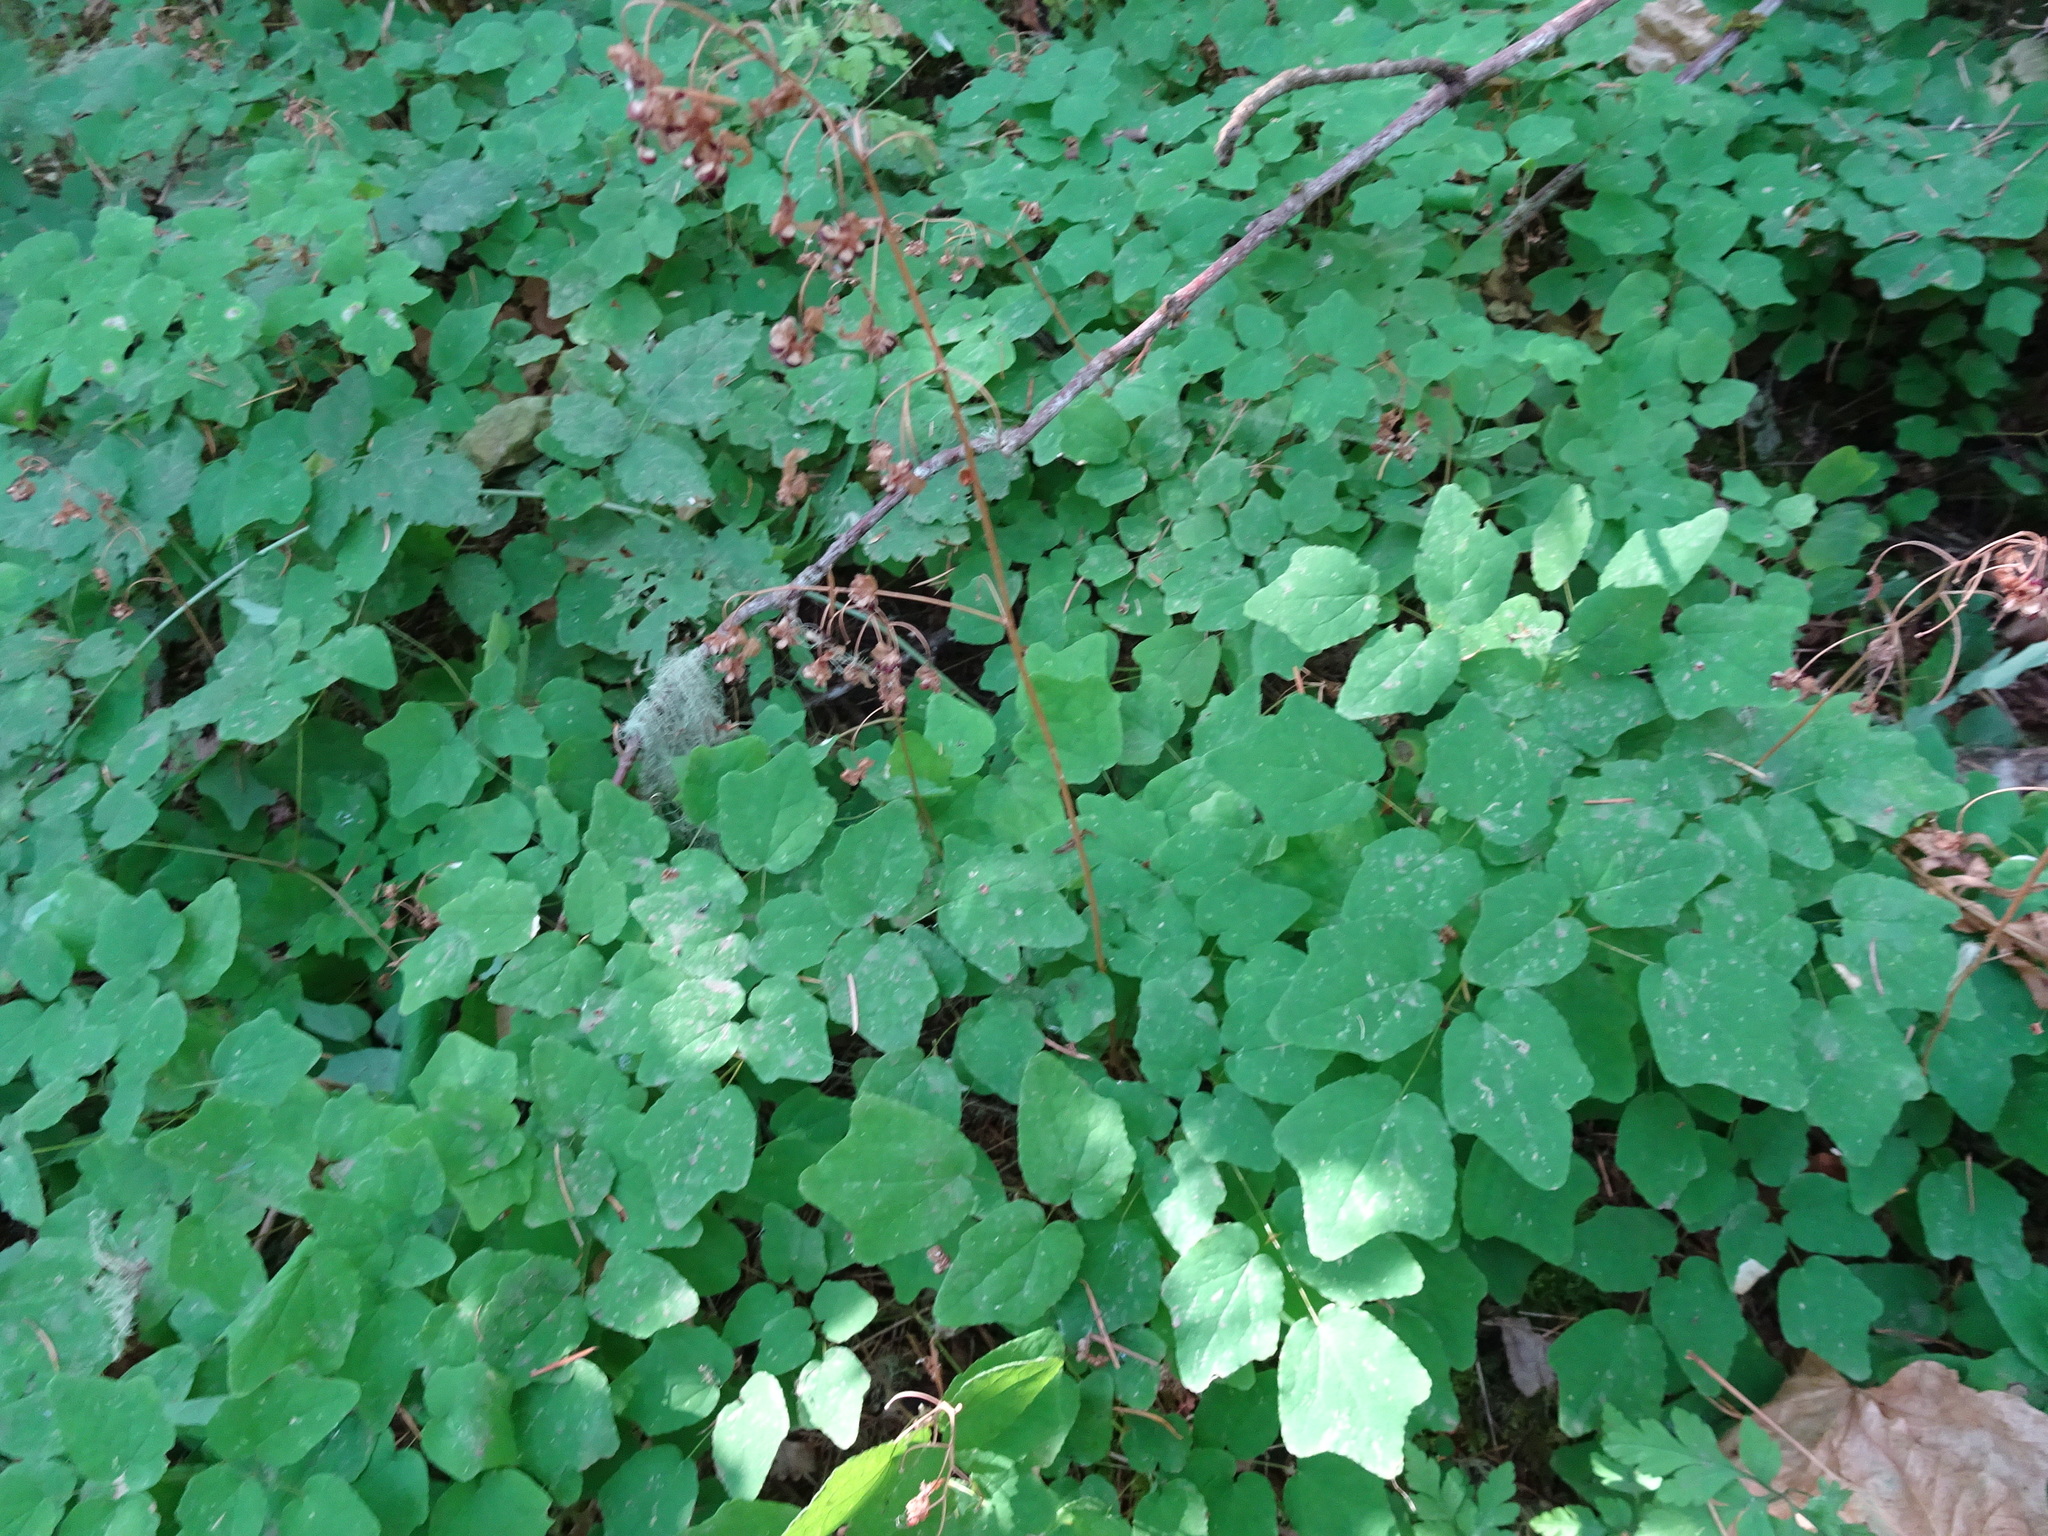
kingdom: Plantae
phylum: Tracheophyta
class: Magnoliopsida
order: Ranunculales
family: Berberidaceae
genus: Vancouveria
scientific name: Vancouveria hexandra
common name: Northern inside-out-flower
